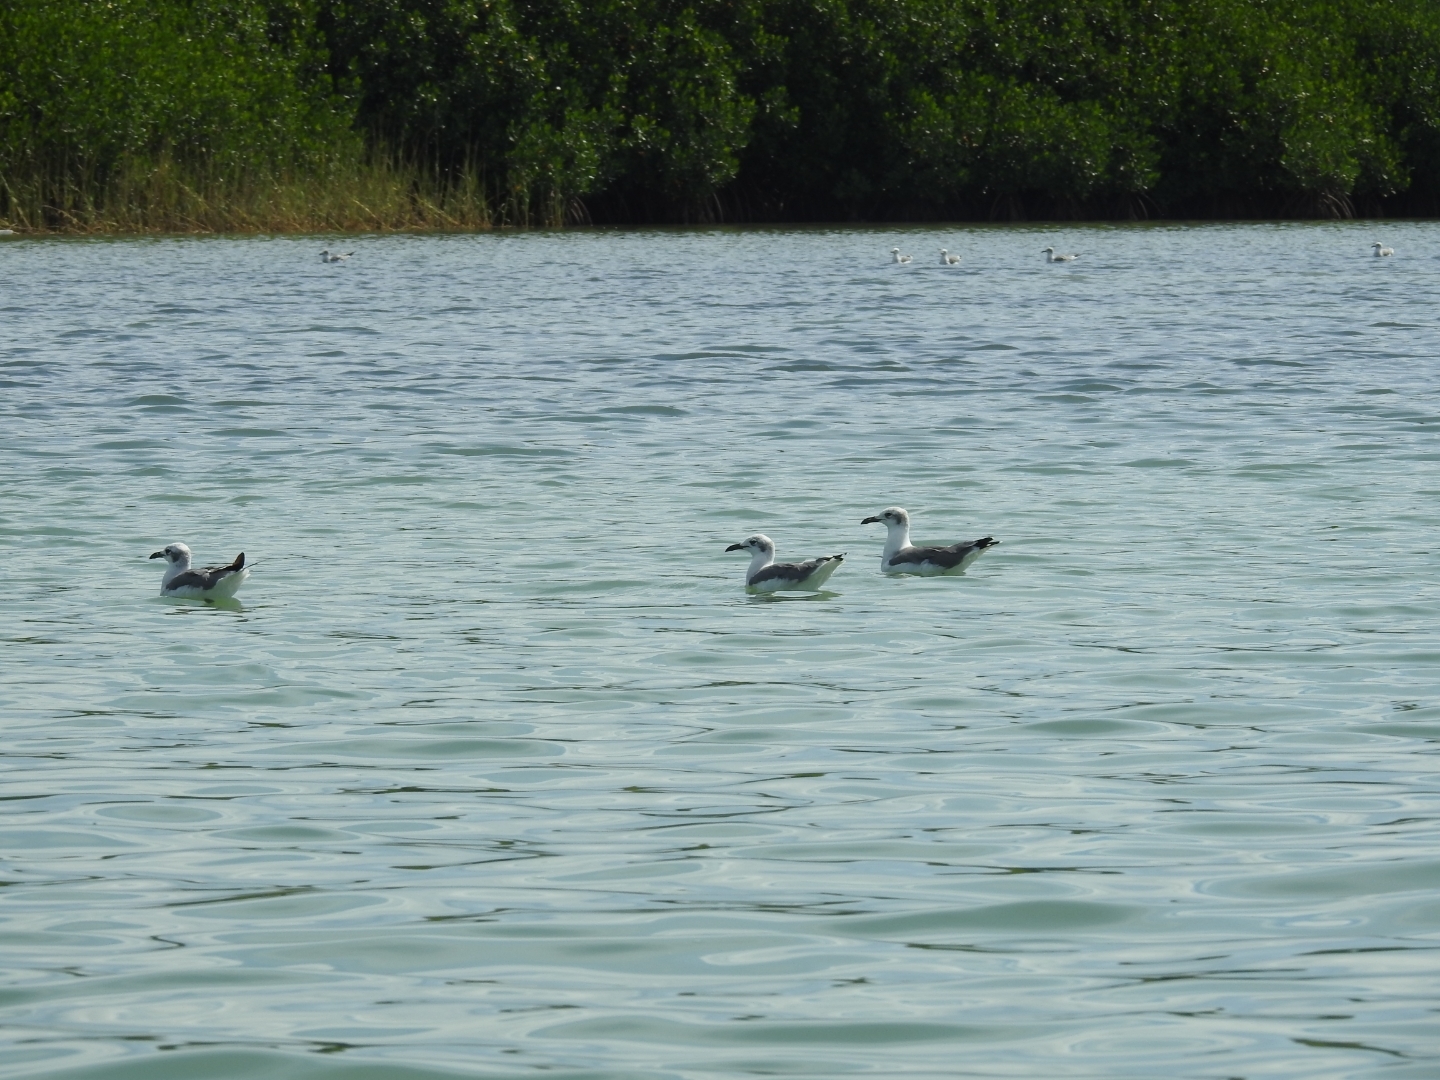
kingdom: Animalia
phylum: Chordata
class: Aves
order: Charadriiformes
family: Laridae
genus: Leucophaeus
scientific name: Leucophaeus atricilla
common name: Laughing gull
